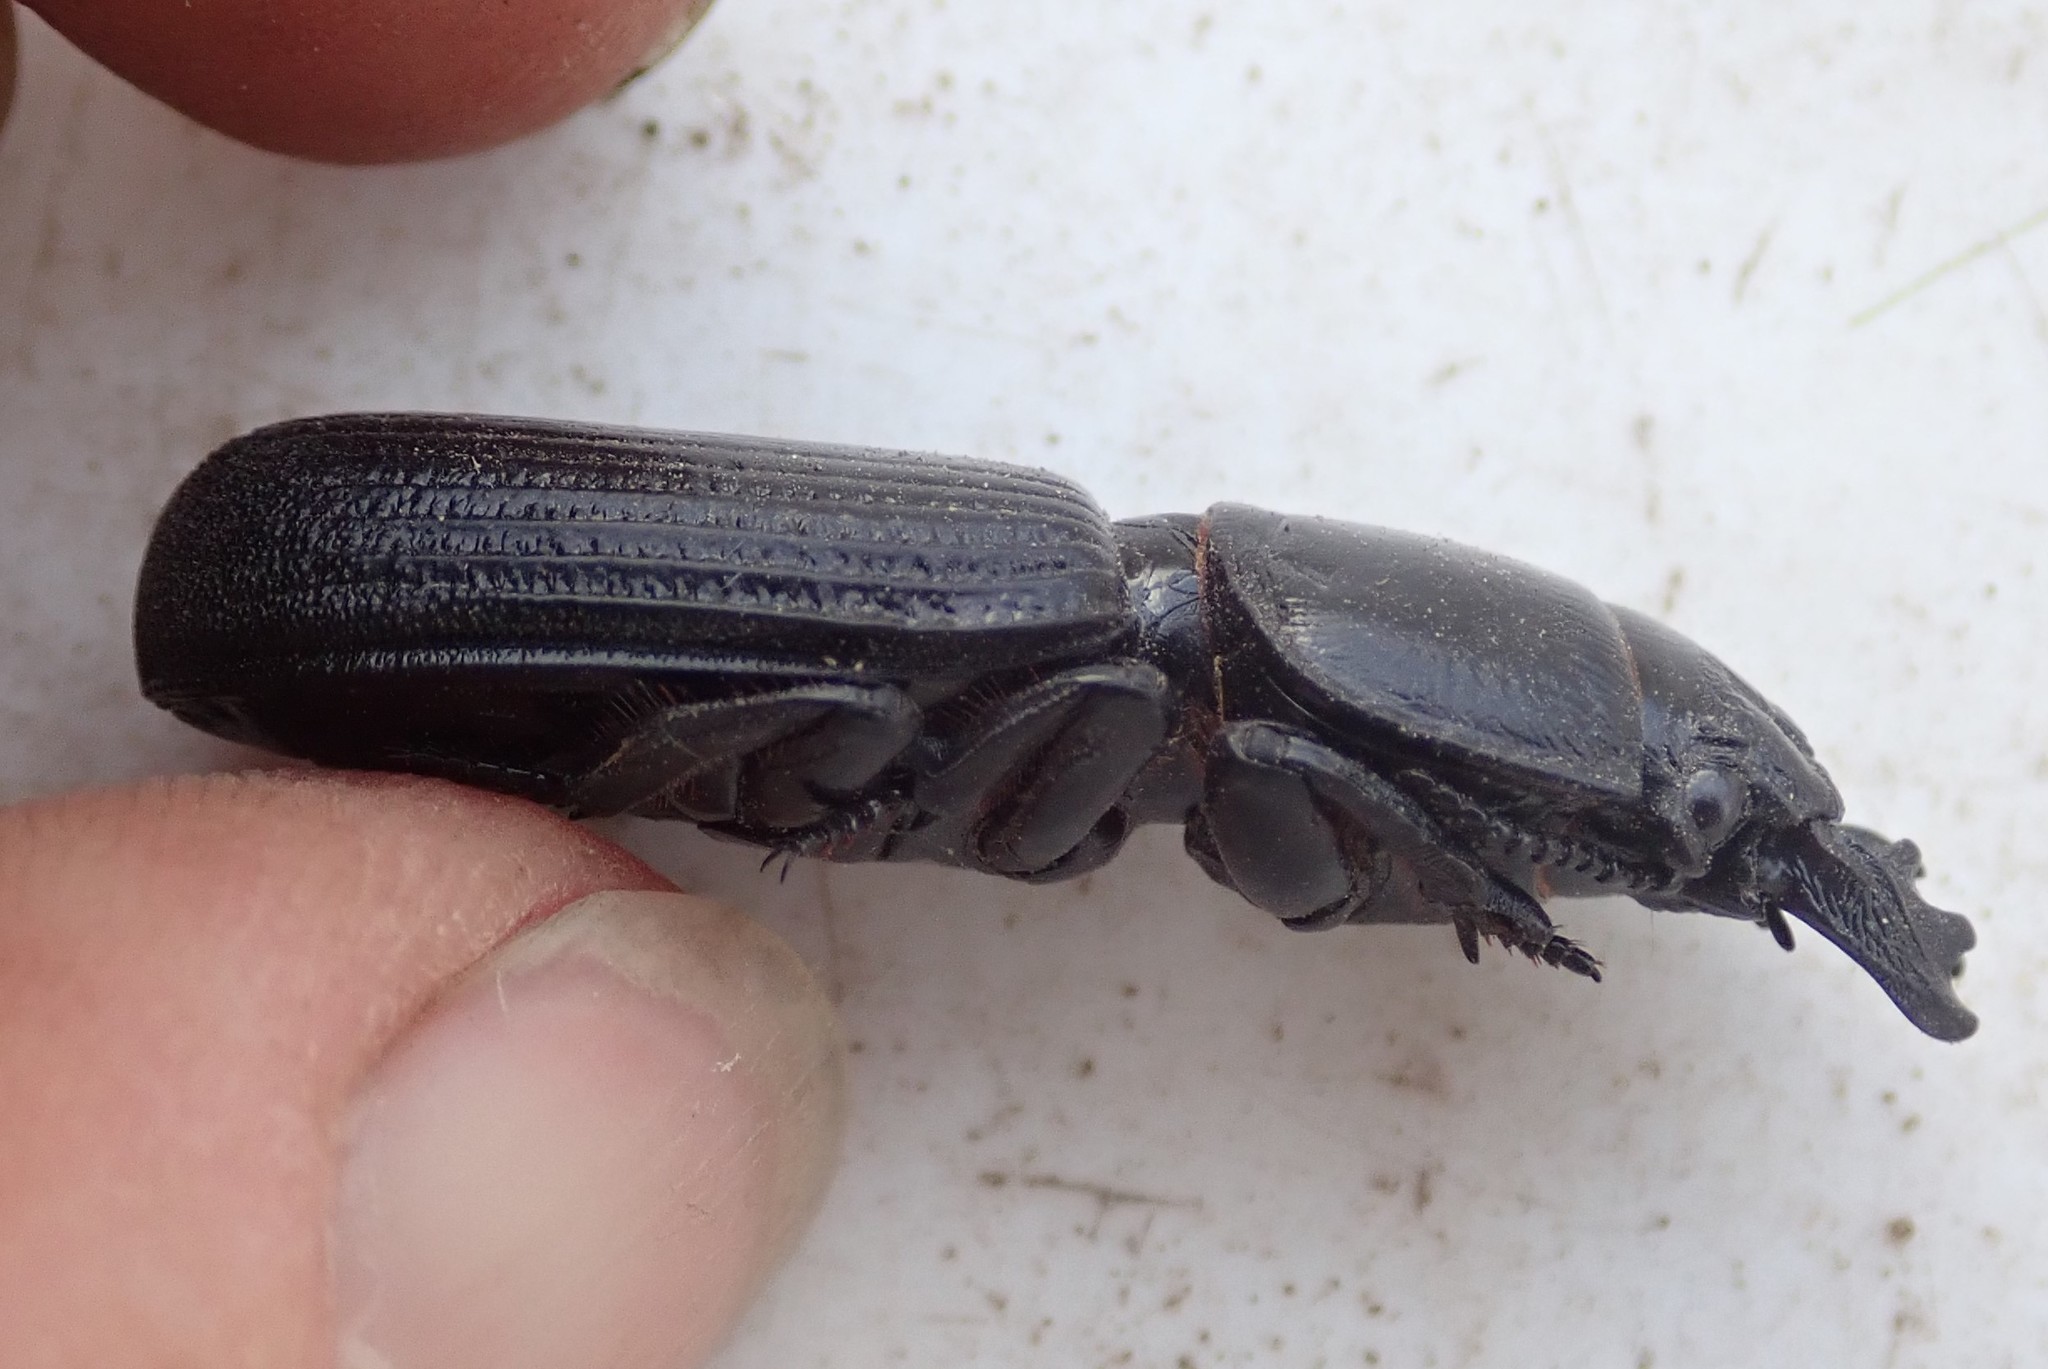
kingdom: Animalia
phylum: Arthropoda
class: Insecta
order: Coleoptera
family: Carabidae
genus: Passalidius
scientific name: Passalidius fortipes
